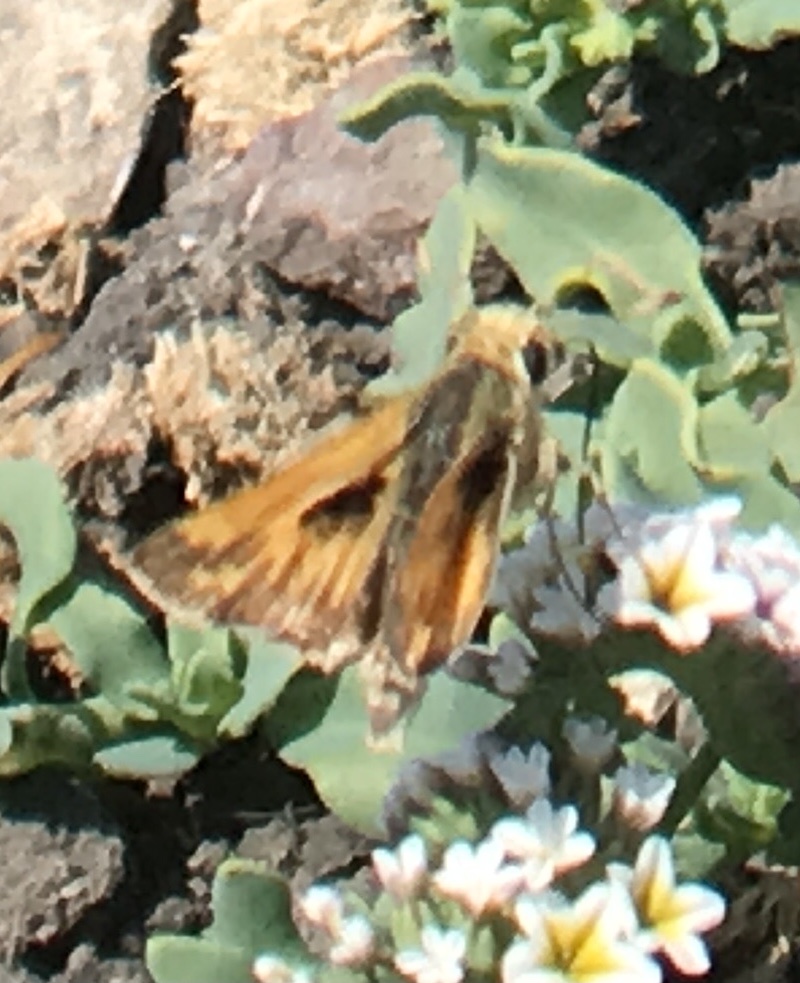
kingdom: Animalia
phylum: Arthropoda
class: Insecta
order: Lepidoptera
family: Hesperiidae
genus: Polites
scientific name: Polites sabuleti
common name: Sandhill skipper
